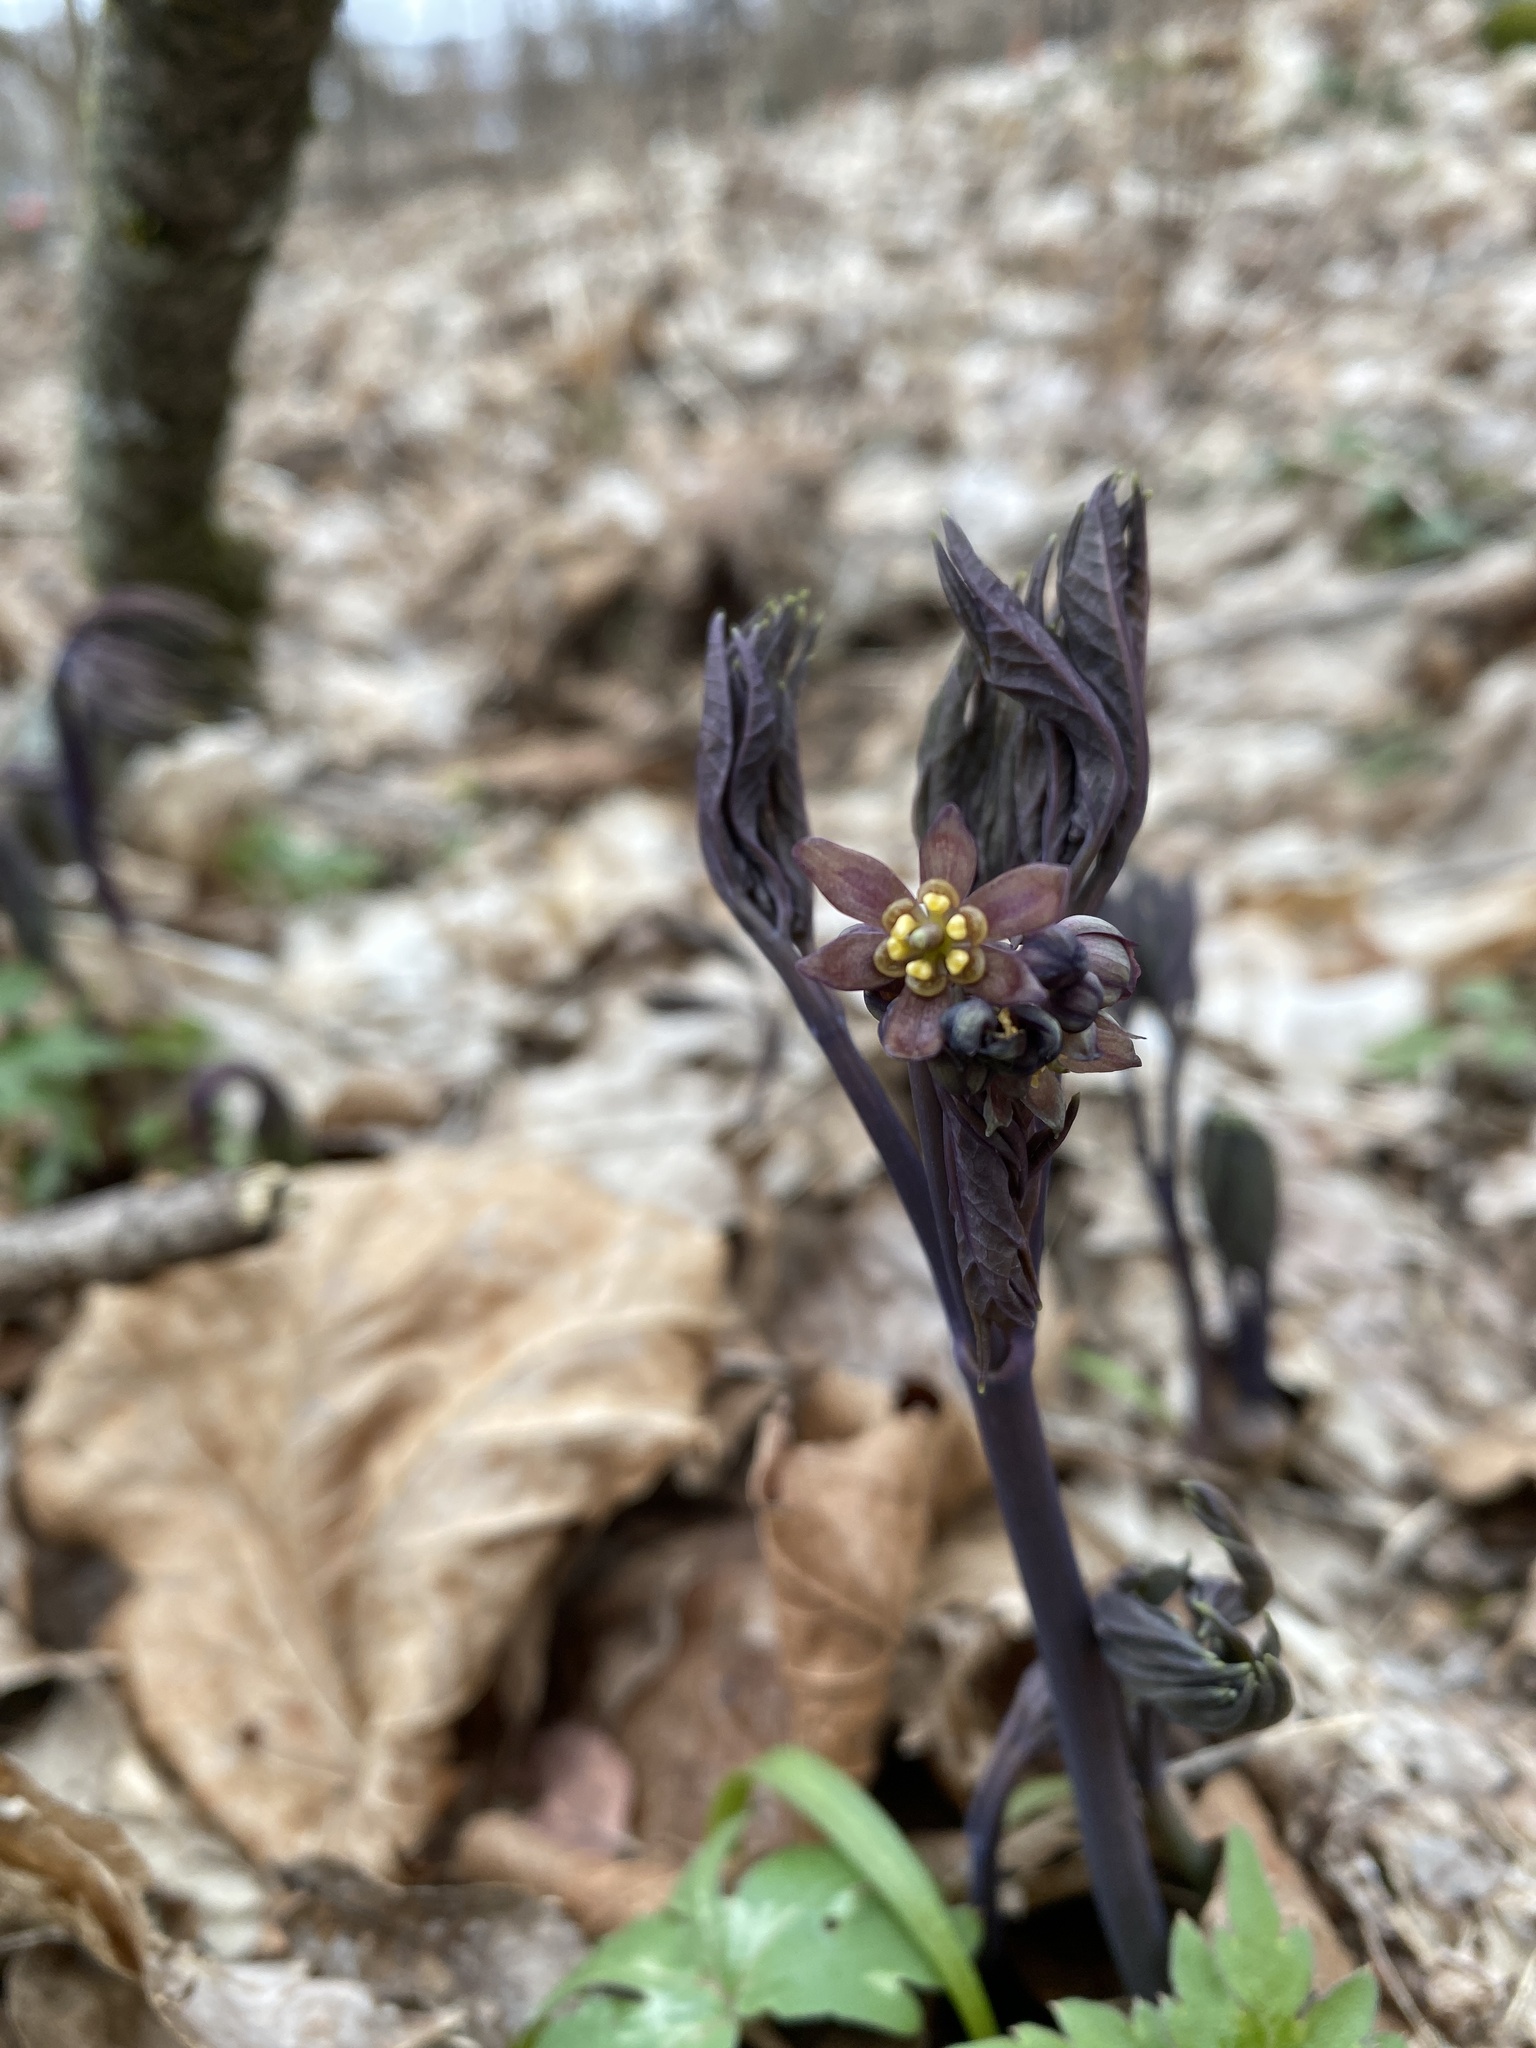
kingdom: Plantae
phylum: Tracheophyta
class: Magnoliopsida
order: Ranunculales
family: Berberidaceae
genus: Caulophyllum
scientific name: Caulophyllum giganteum
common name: Blue cohosh
